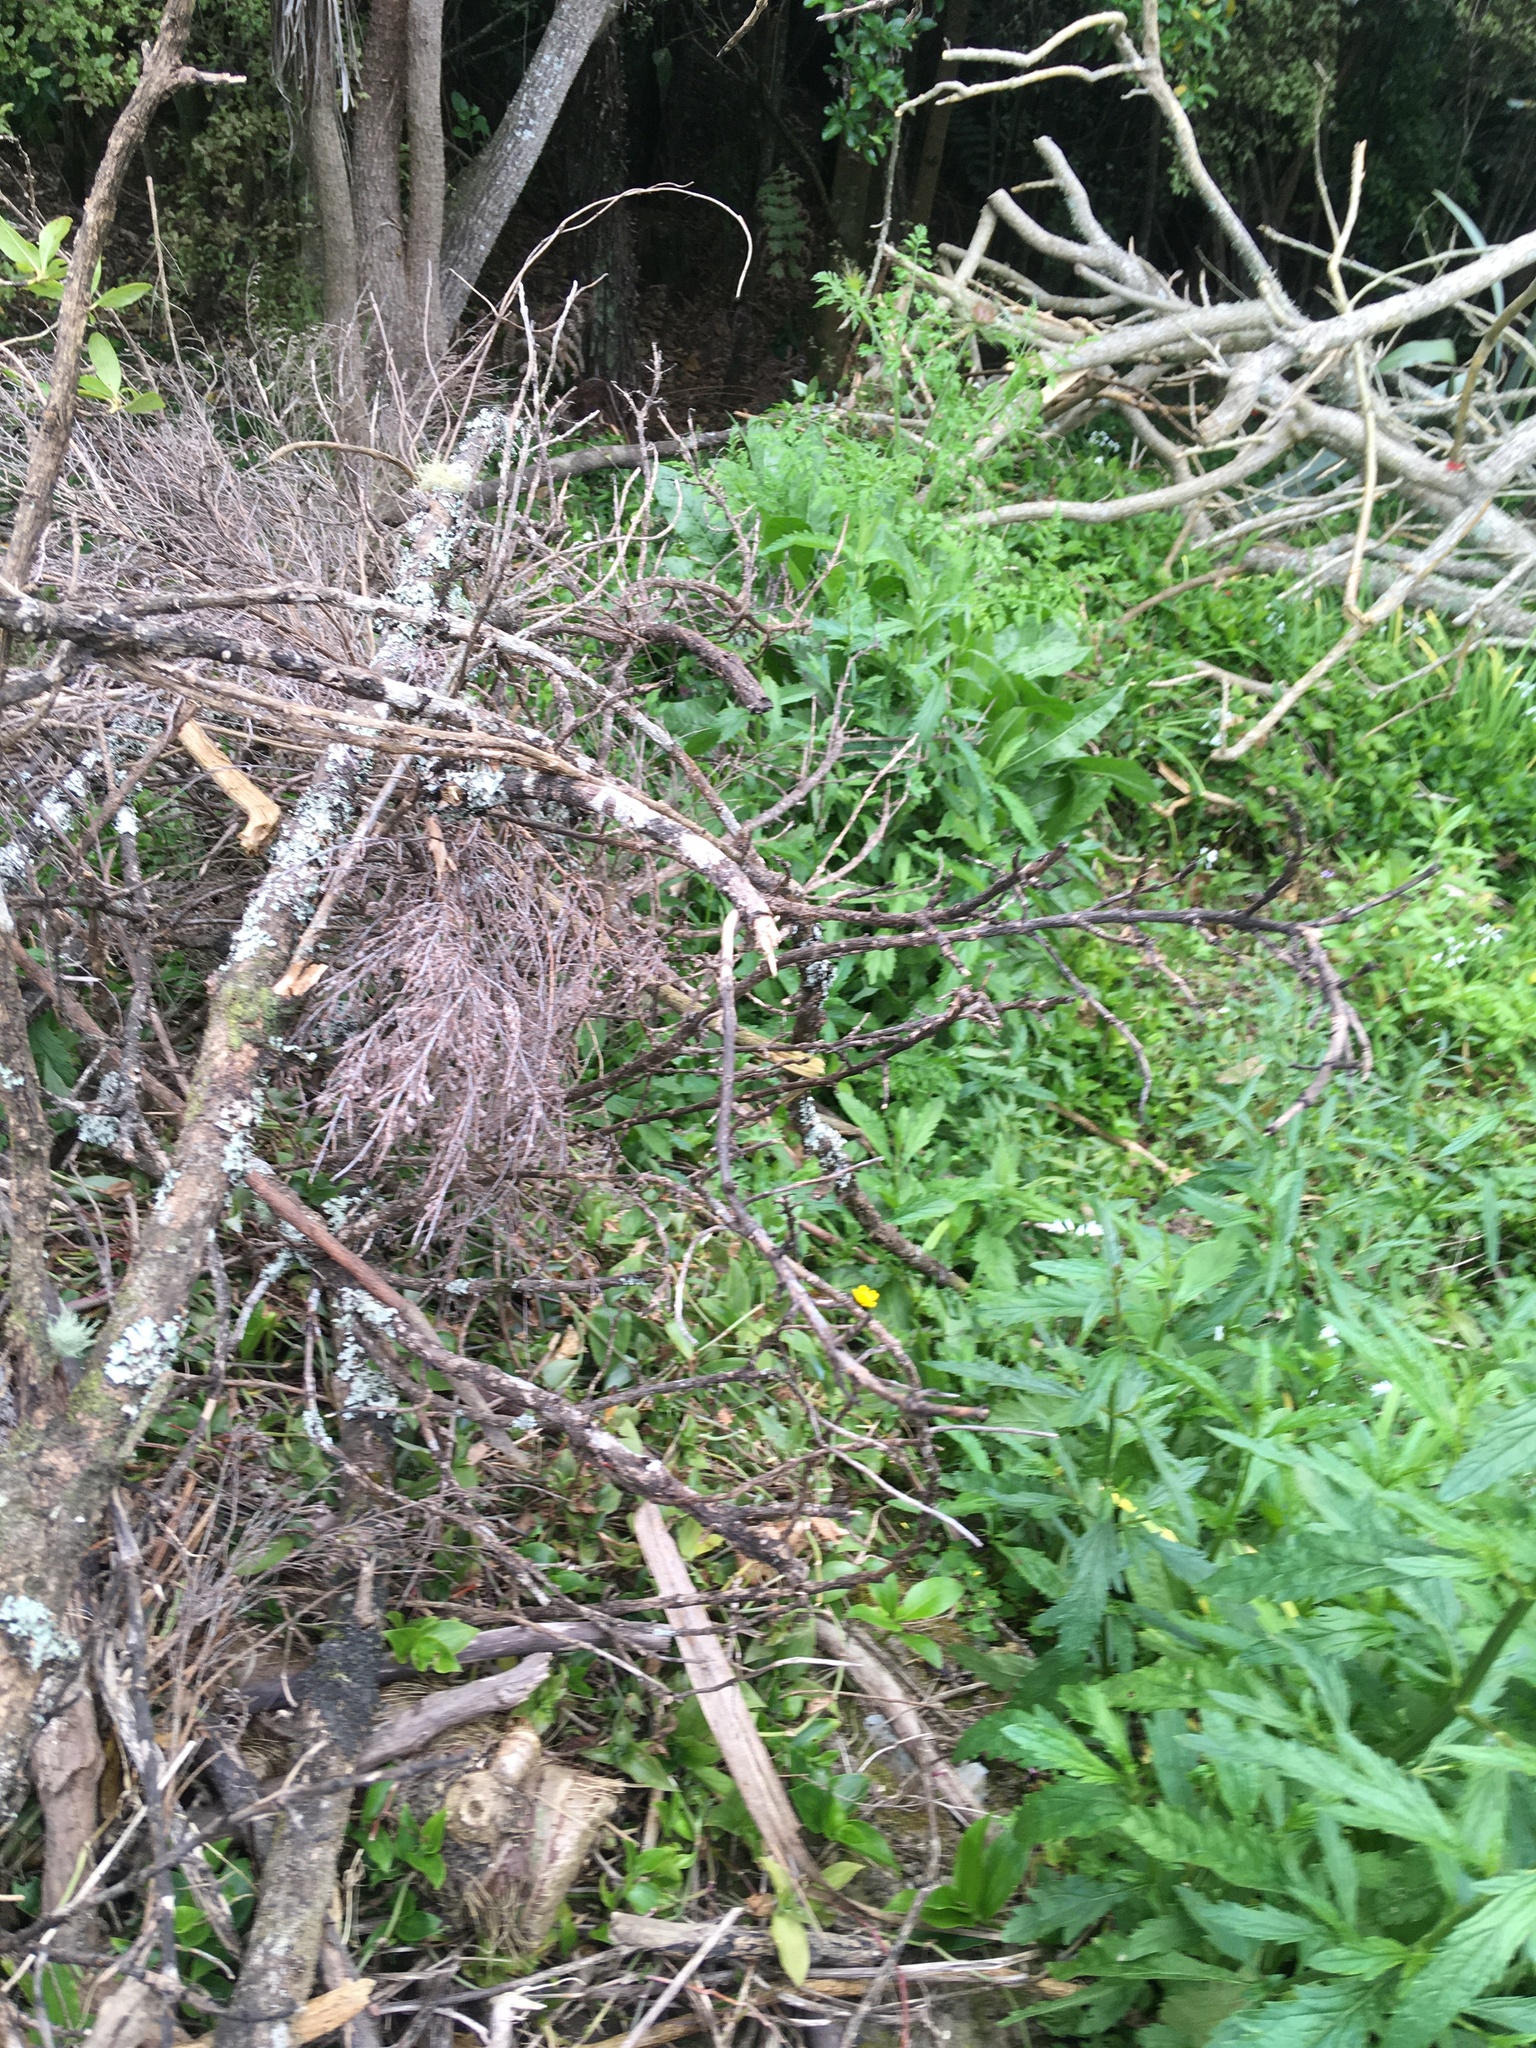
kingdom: Plantae
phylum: Tracheophyta
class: Magnoliopsida
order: Gentianales
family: Rubiaceae
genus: Coprosma
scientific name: Coprosma robusta
